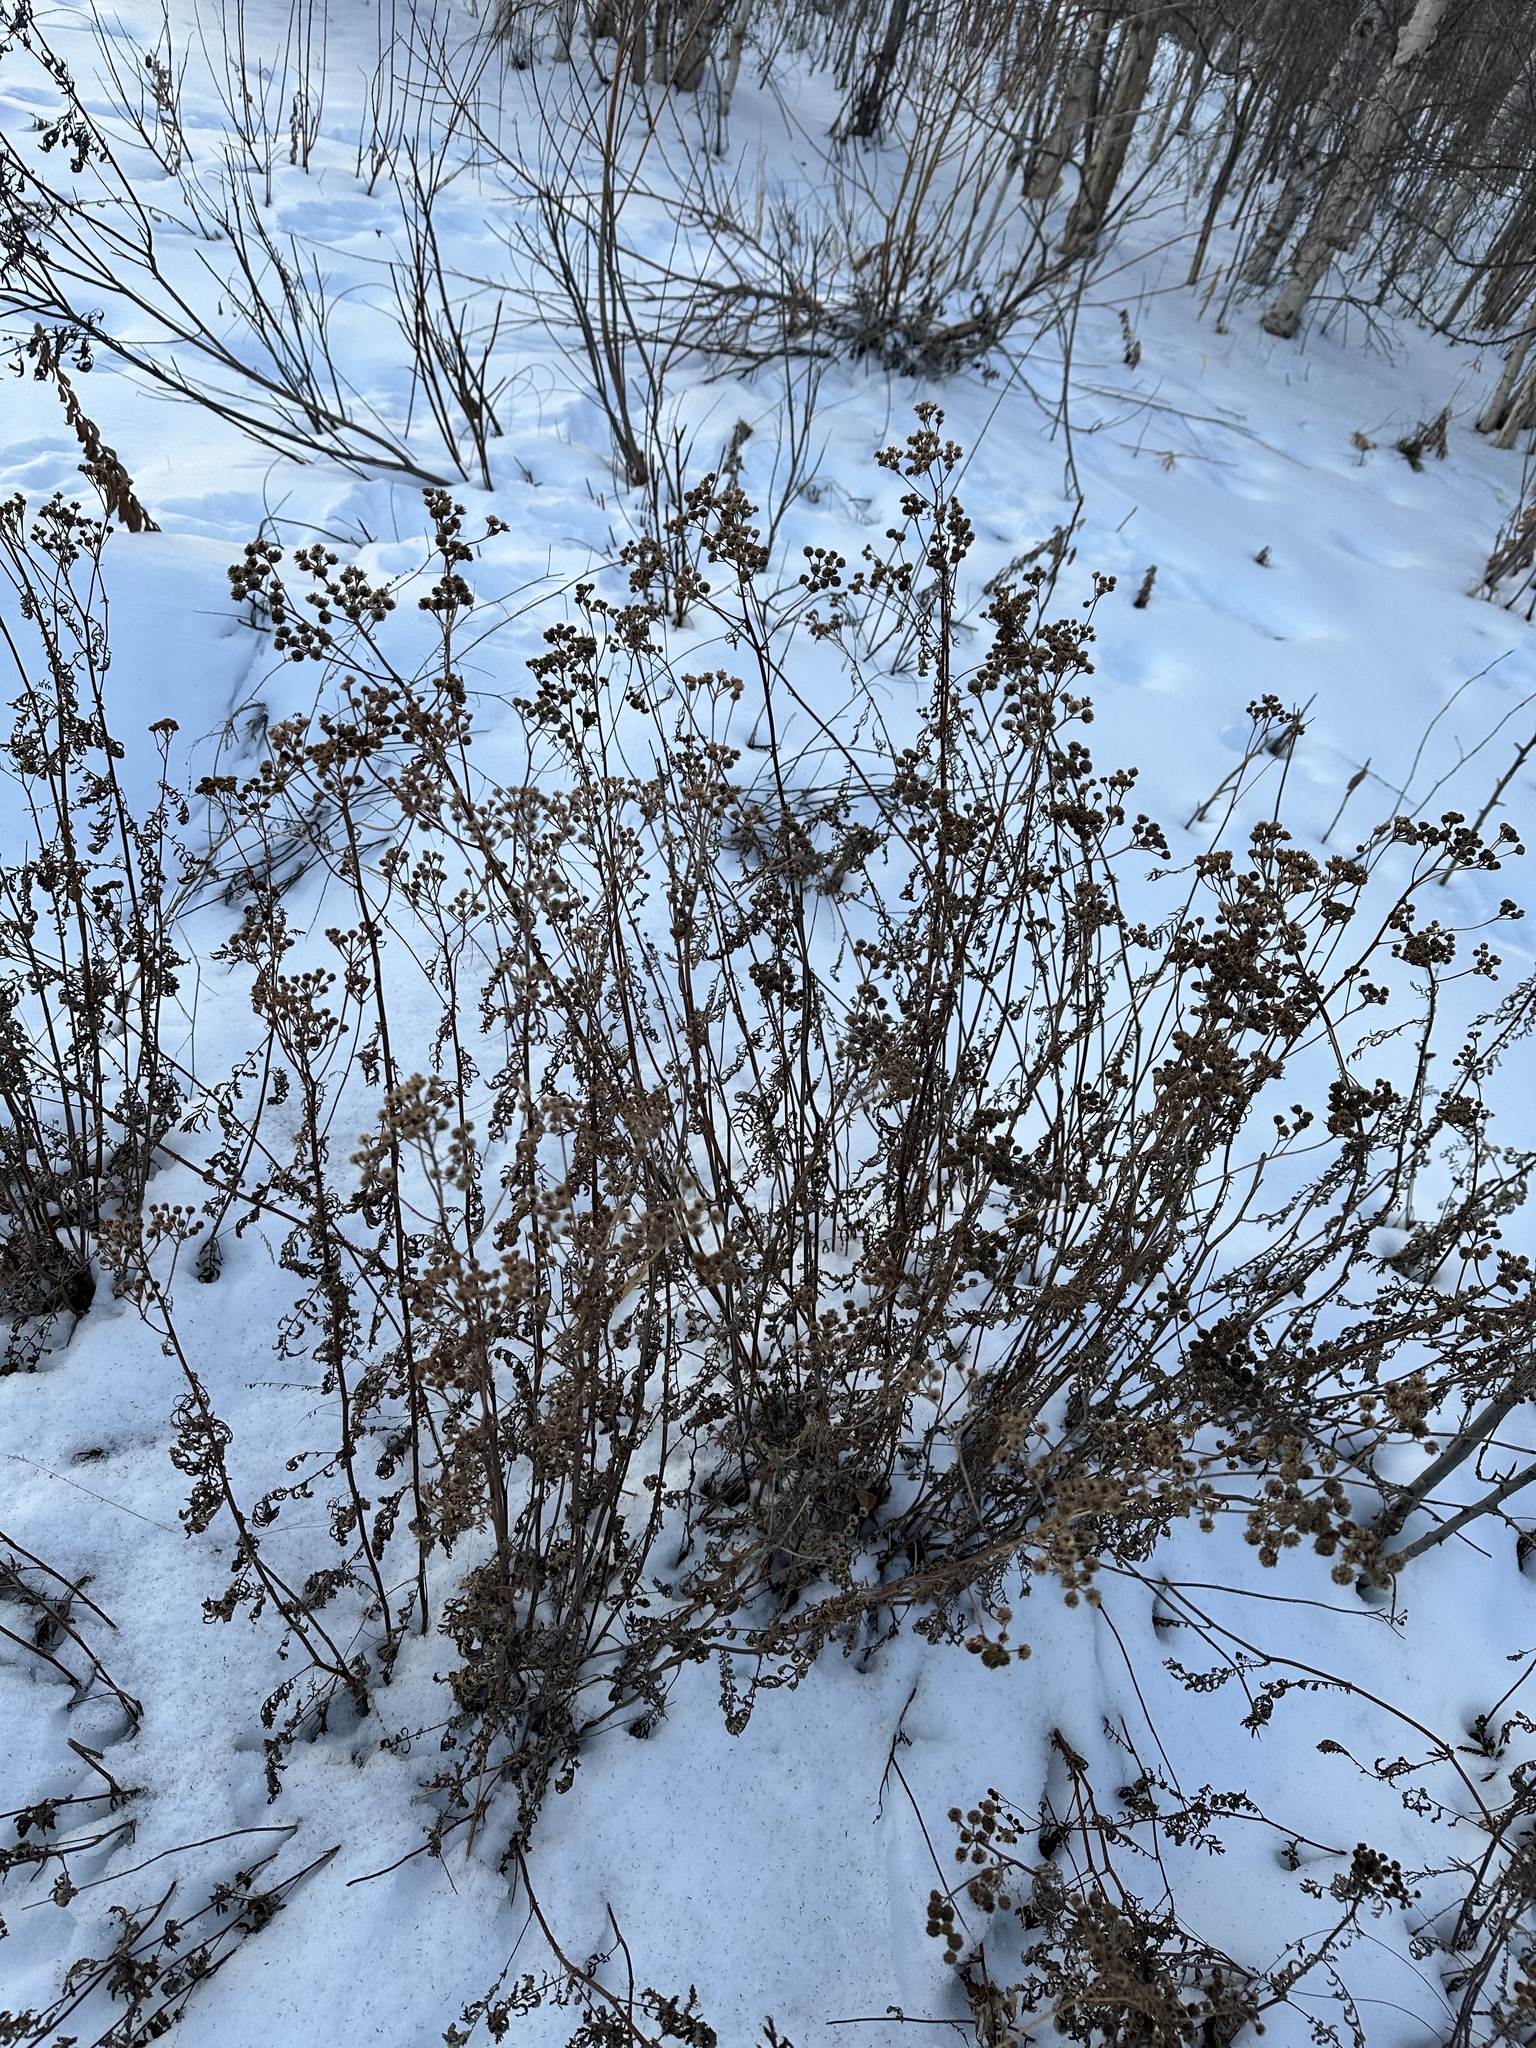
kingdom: Plantae
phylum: Tracheophyta
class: Magnoliopsida
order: Asterales
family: Asteraceae
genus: Tanacetum
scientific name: Tanacetum vulgare
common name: Common tansy
